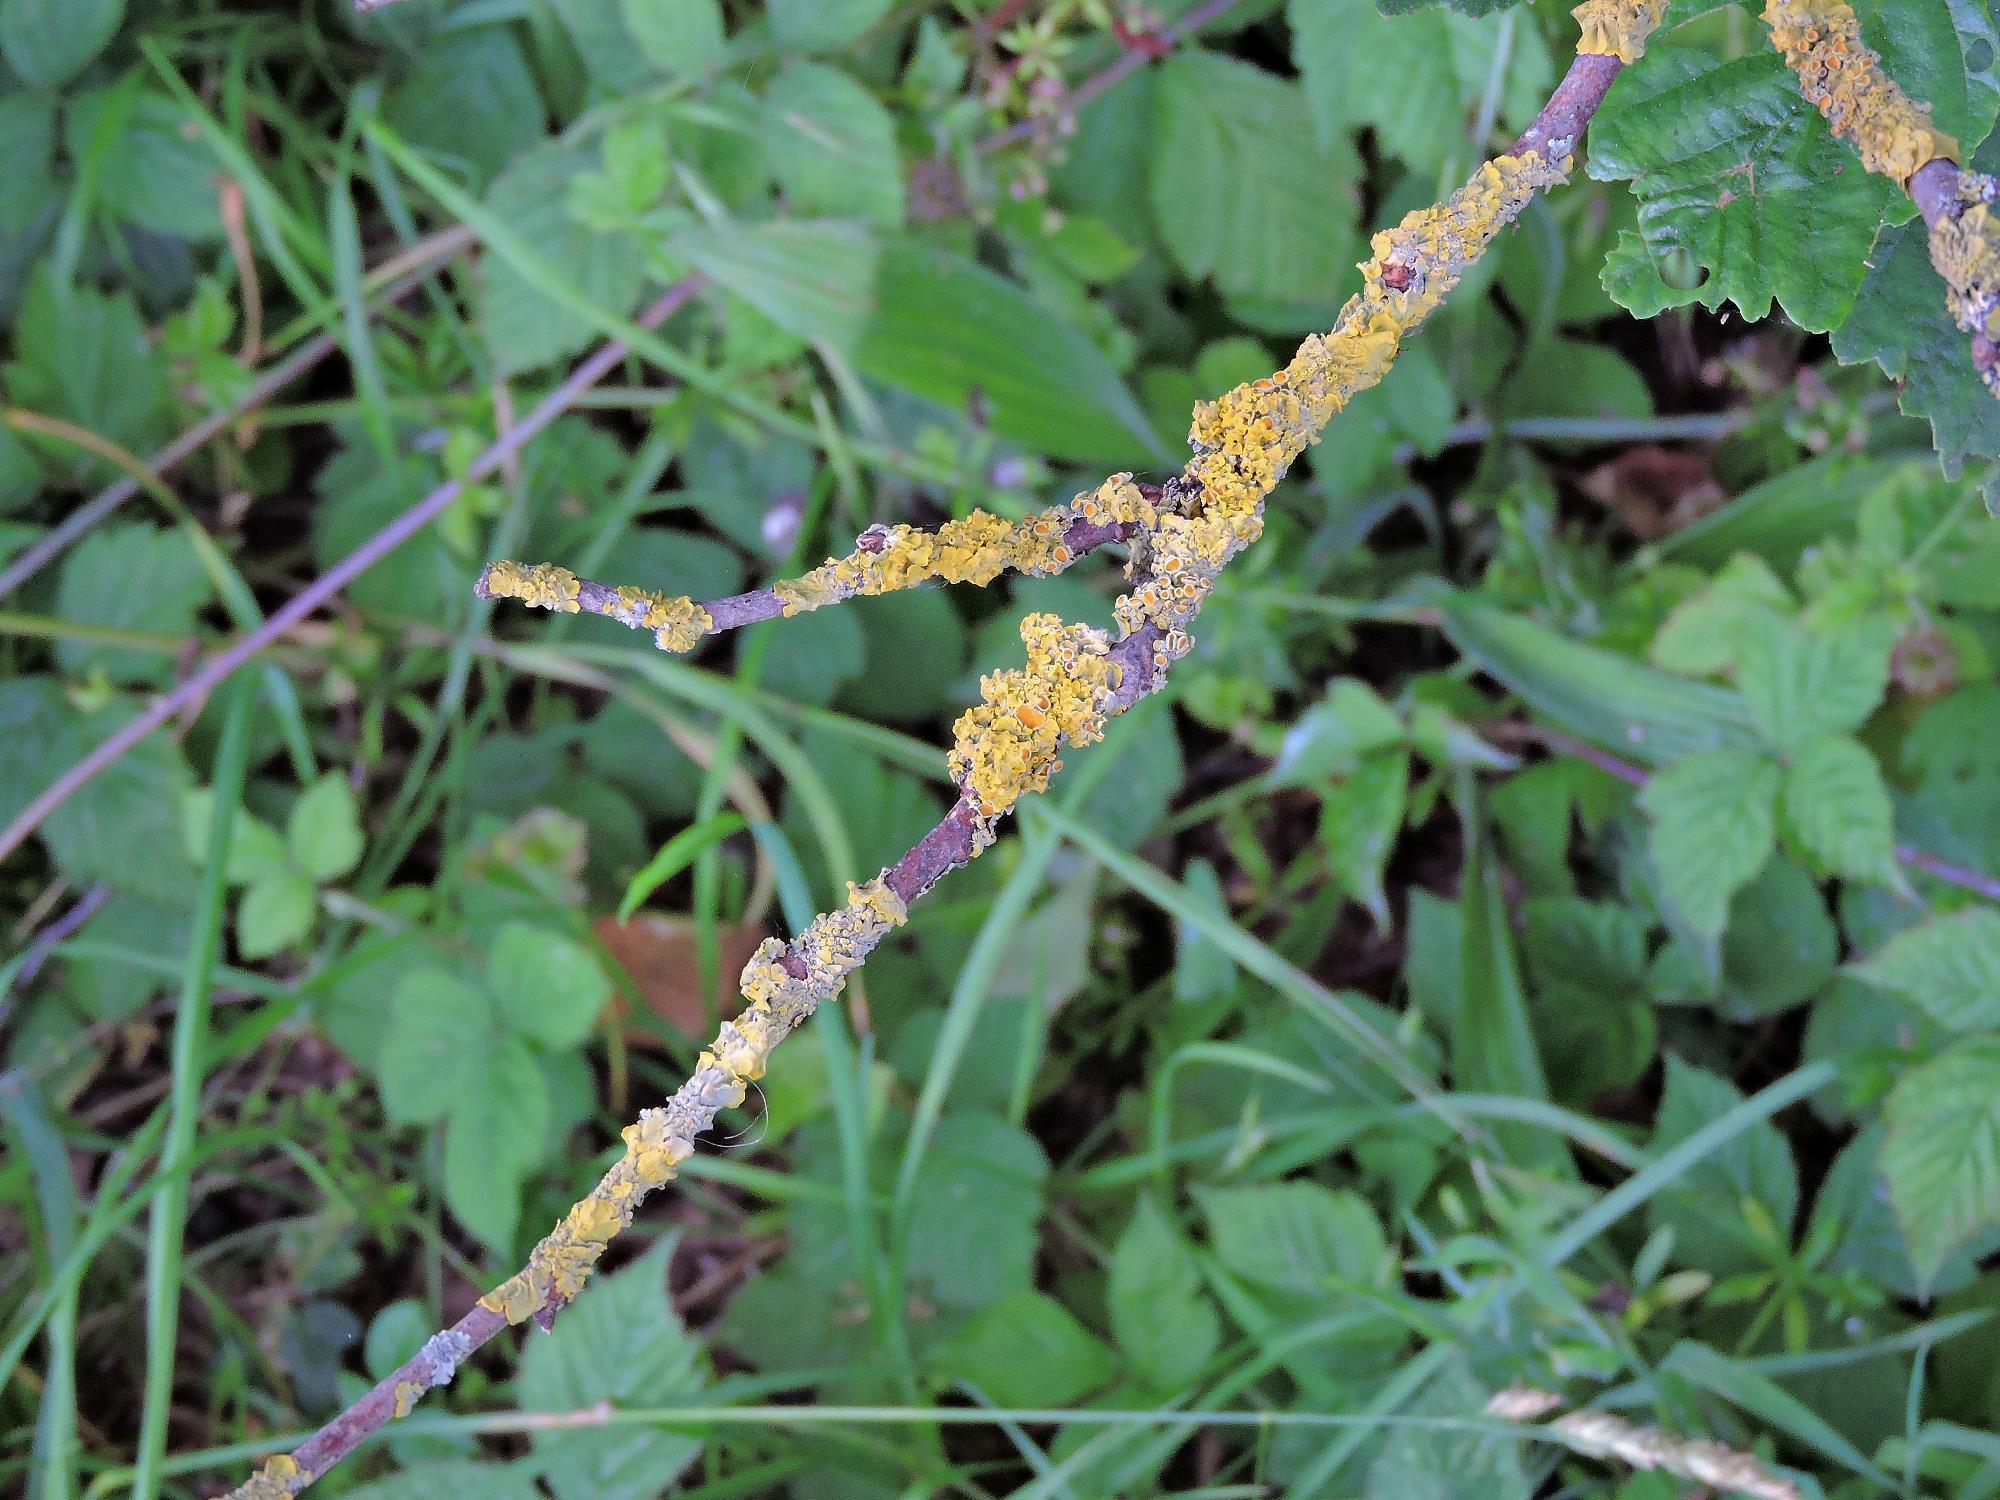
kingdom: Fungi
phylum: Ascomycota
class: Lecanoromycetes
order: Teloschistales
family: Teloschistaceae
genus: Xanthoria
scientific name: Xanthoria parietina
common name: Common orange lichen
